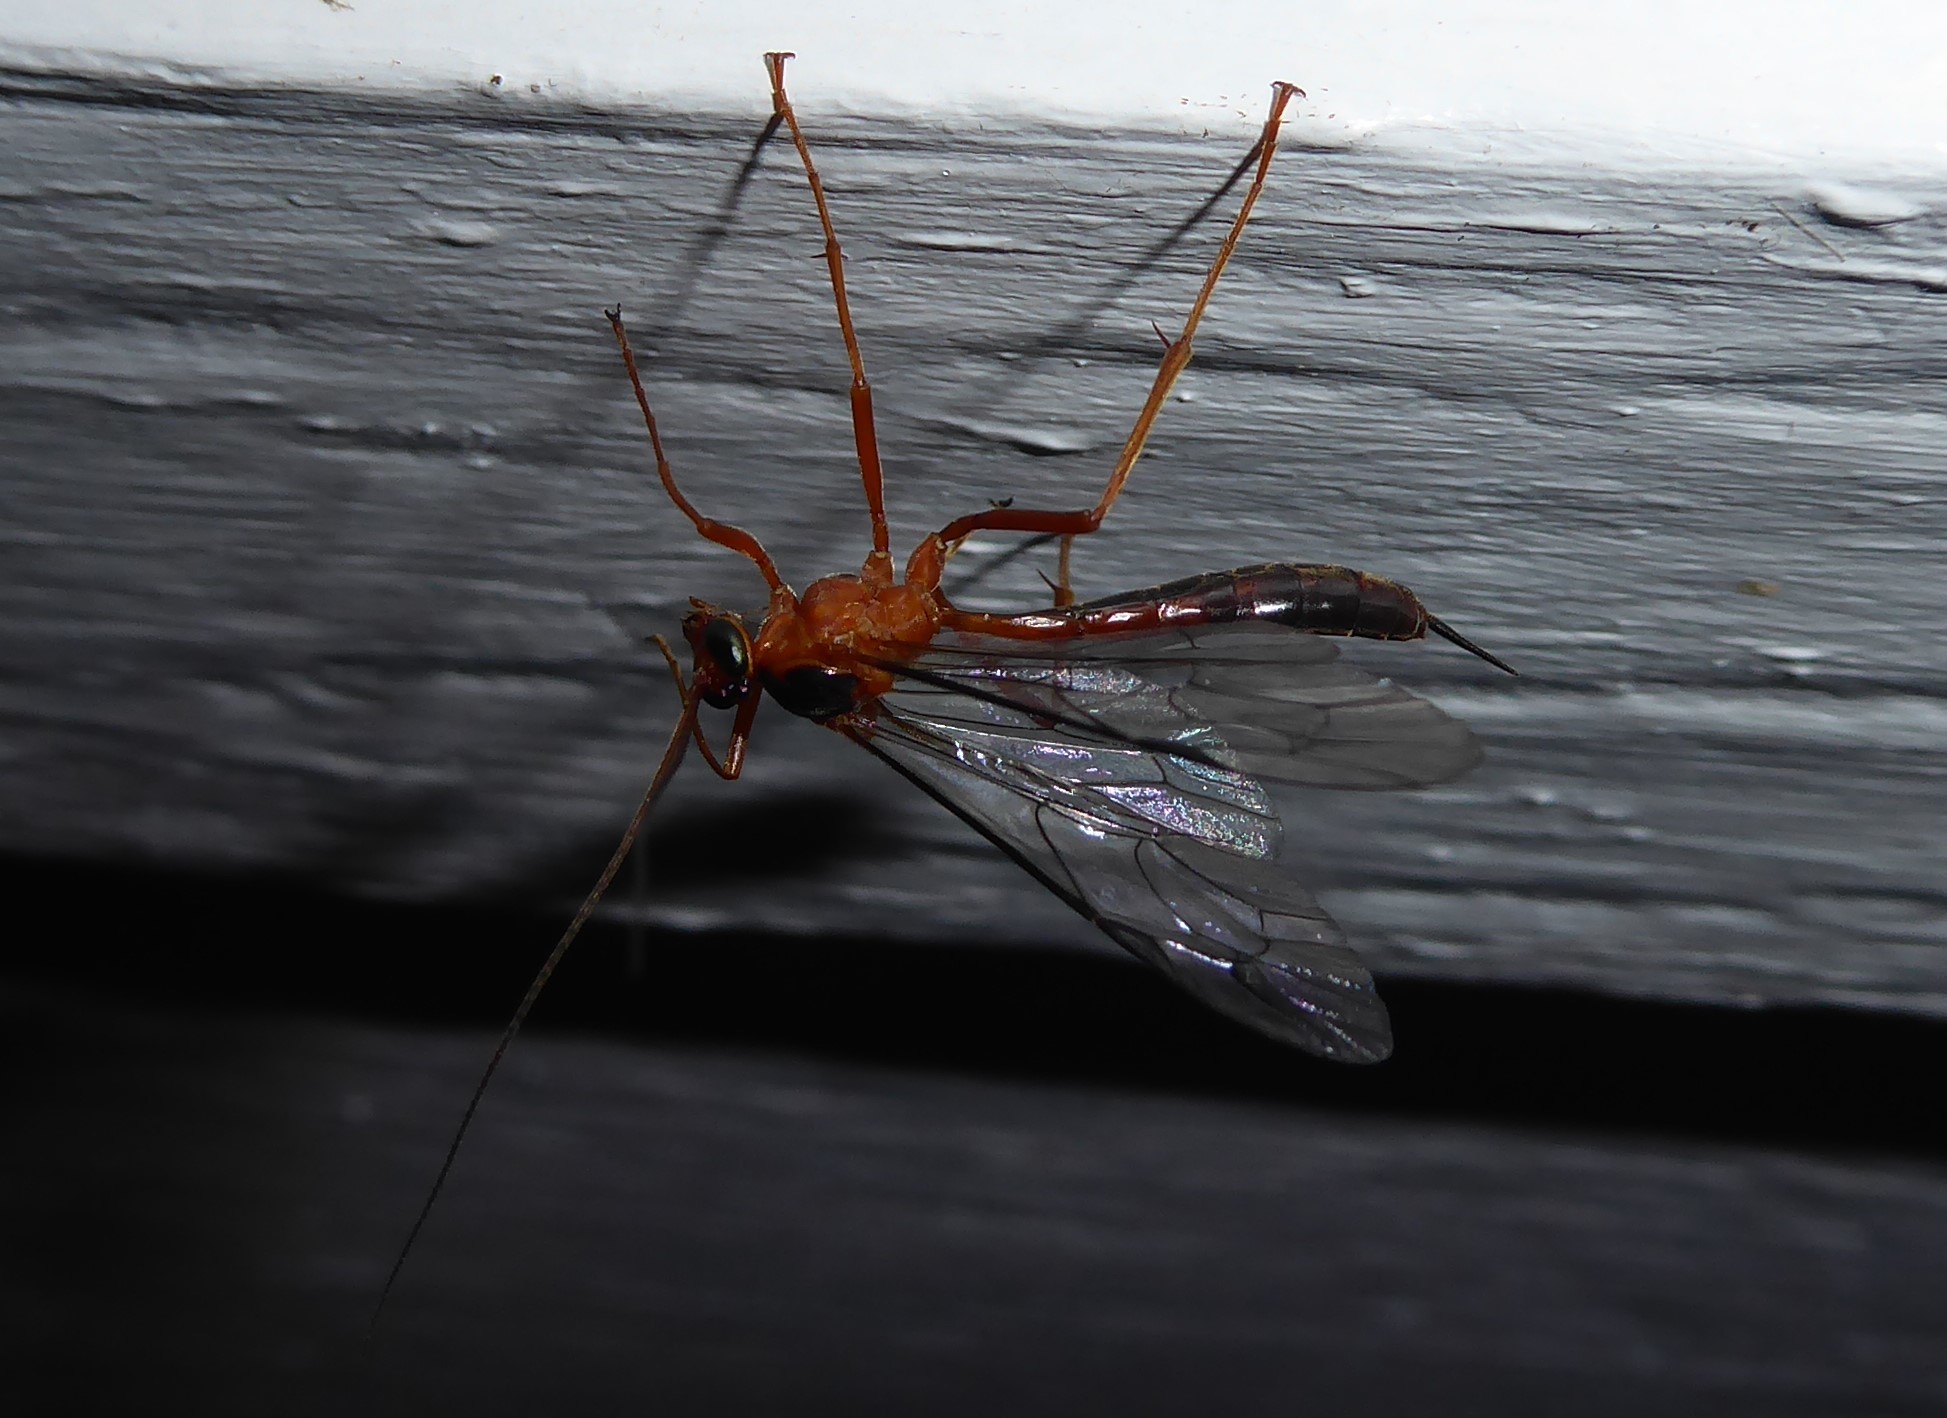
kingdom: Animalia
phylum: Arthropoda
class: Insecta
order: Hymenoptera
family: Ichneumonidae
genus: Netelia
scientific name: Netelia ephippiata
